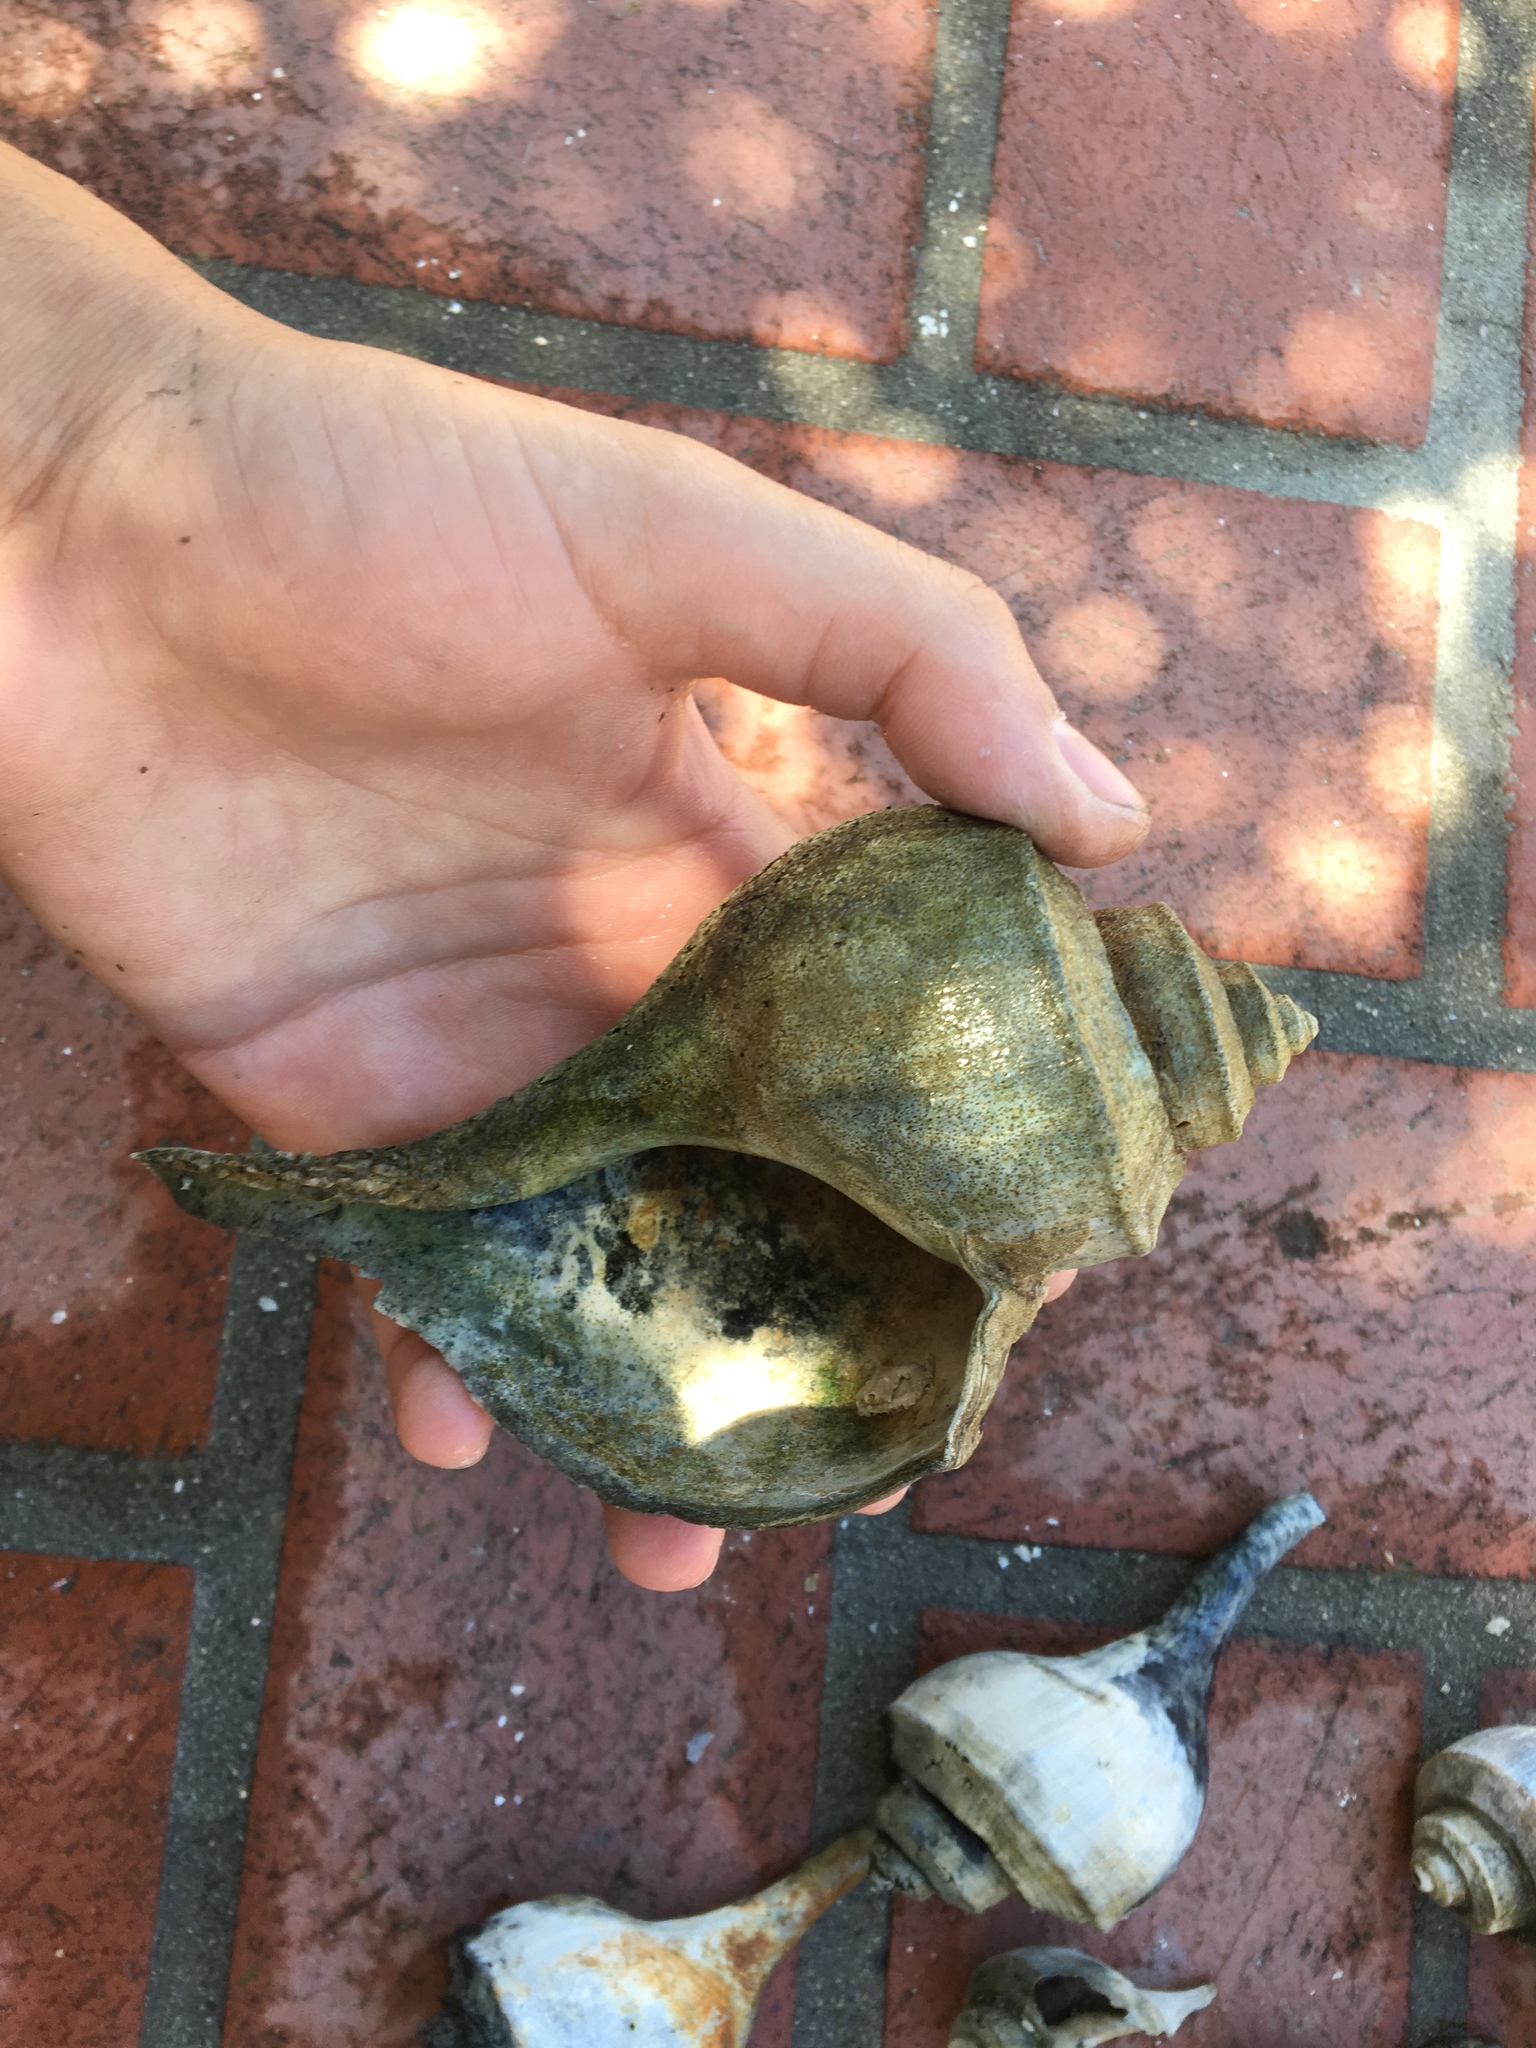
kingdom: Animalia
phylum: Mollusca
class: Gastropoda
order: Neogastropoda
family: Busyconidae
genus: Busycotypus
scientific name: Busycotypus canaliculatus
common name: Channeled whelk
